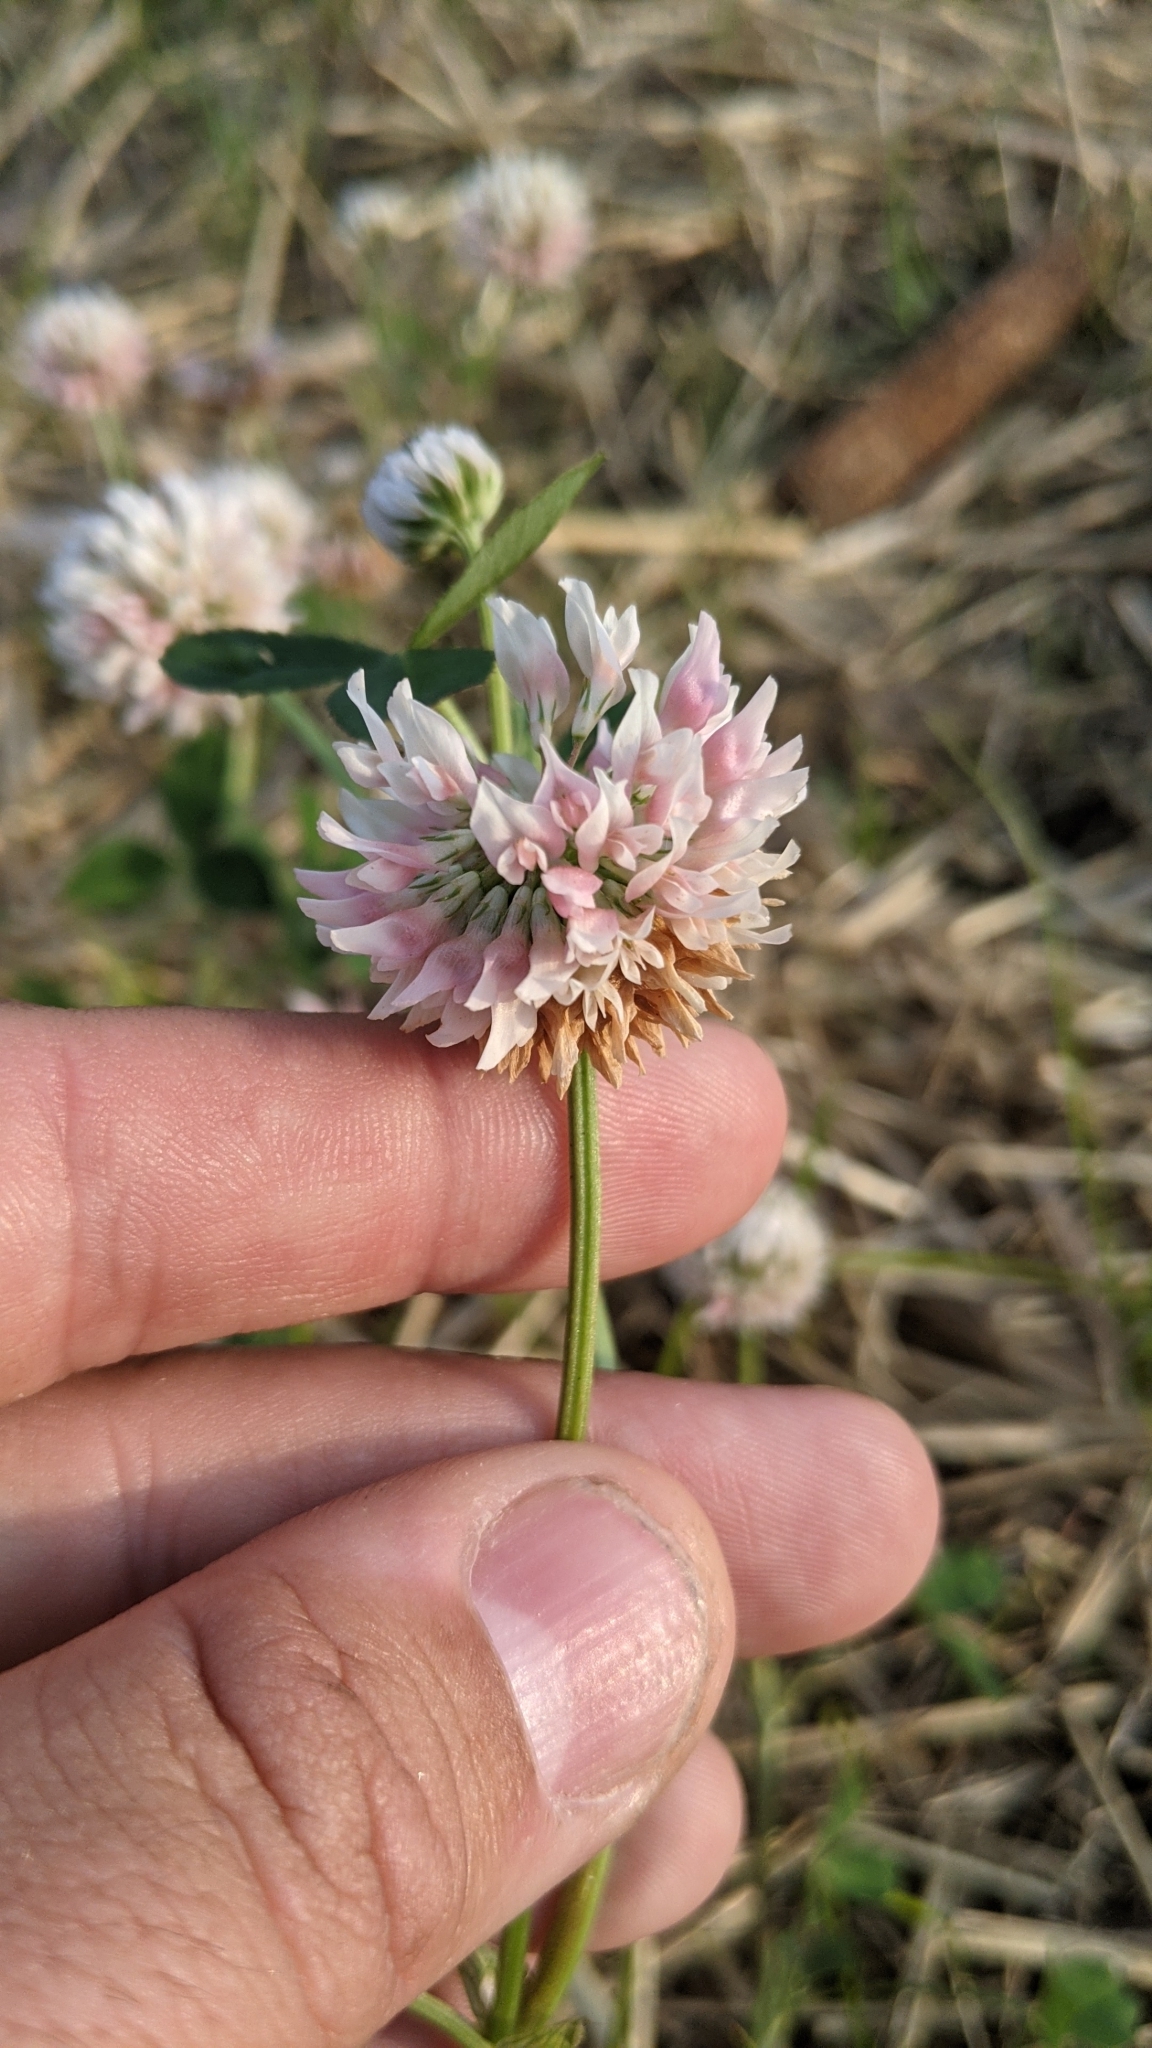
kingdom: Plantae
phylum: Tracheophyta
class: Magnoliopsida
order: Fabales
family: Fabaceae
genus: Trifolium
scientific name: Trifolium hybridum
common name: Alsike clover
